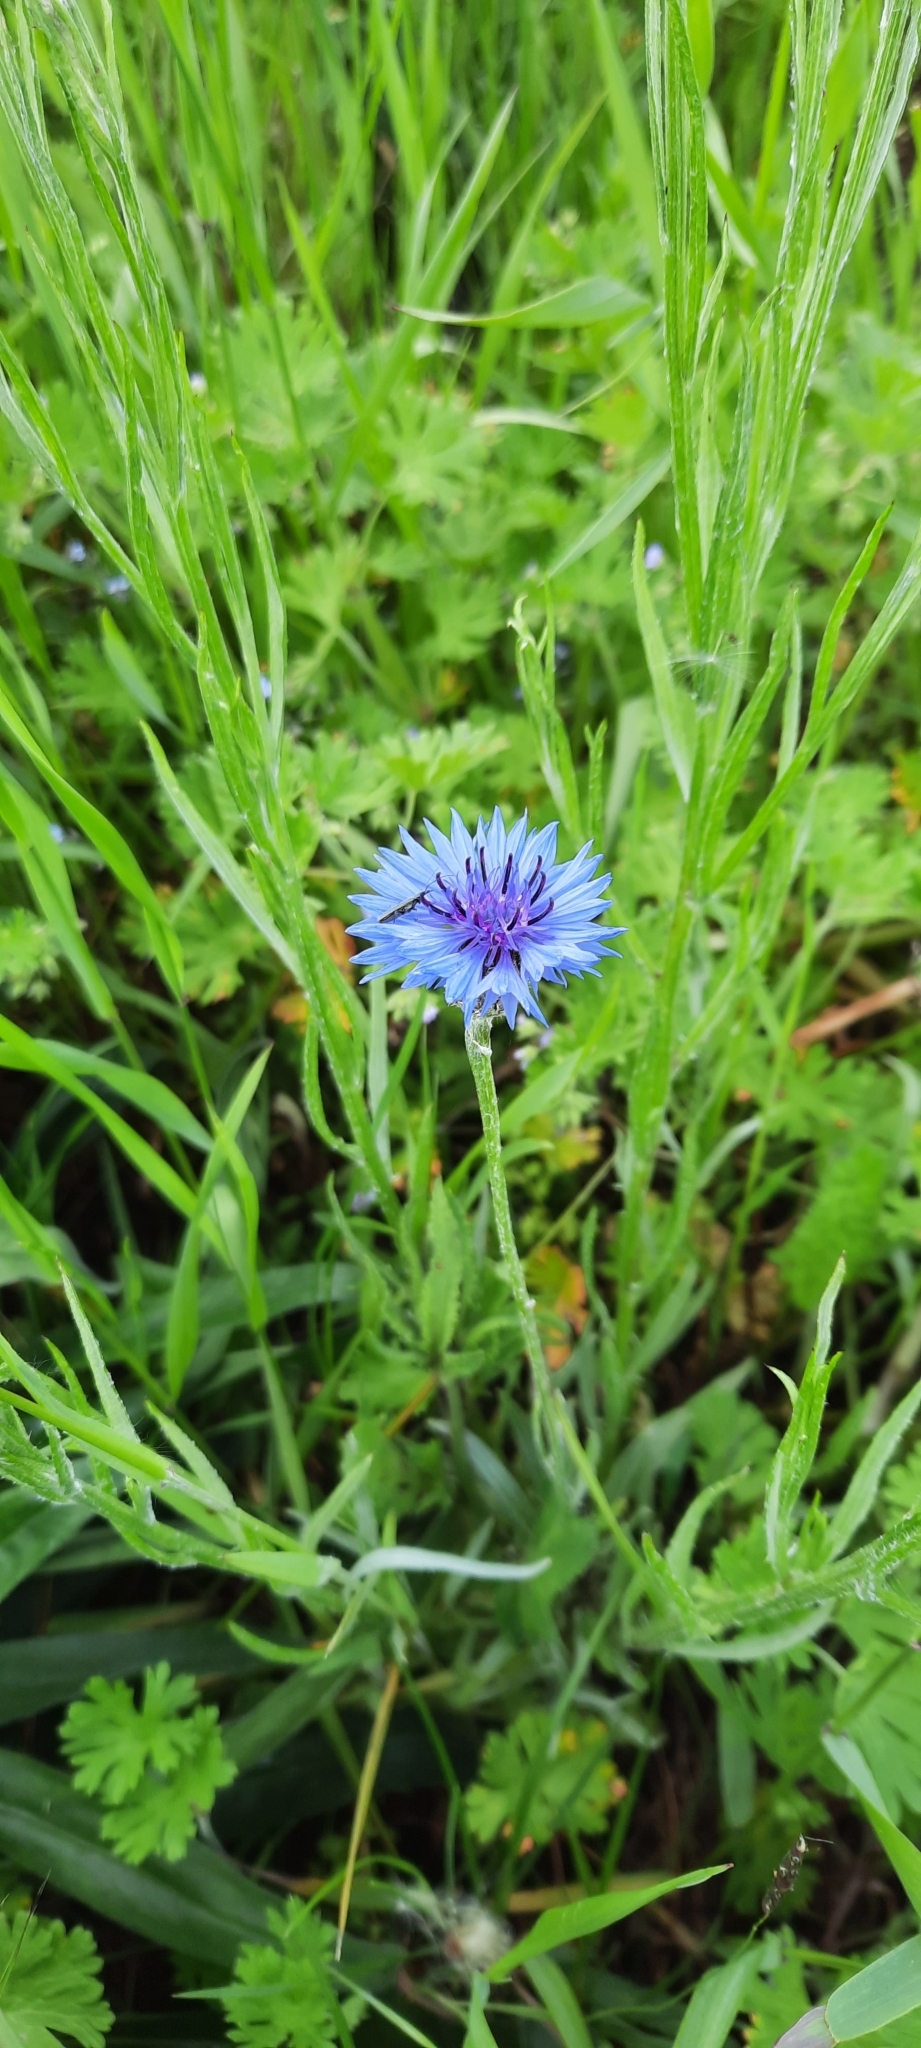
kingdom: Plantae
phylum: Tracheophyta
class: Magnoliopsida
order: Asterales
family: Asteraceae
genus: Centaurea
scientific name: Centaurea cyanus
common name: Cornflower
